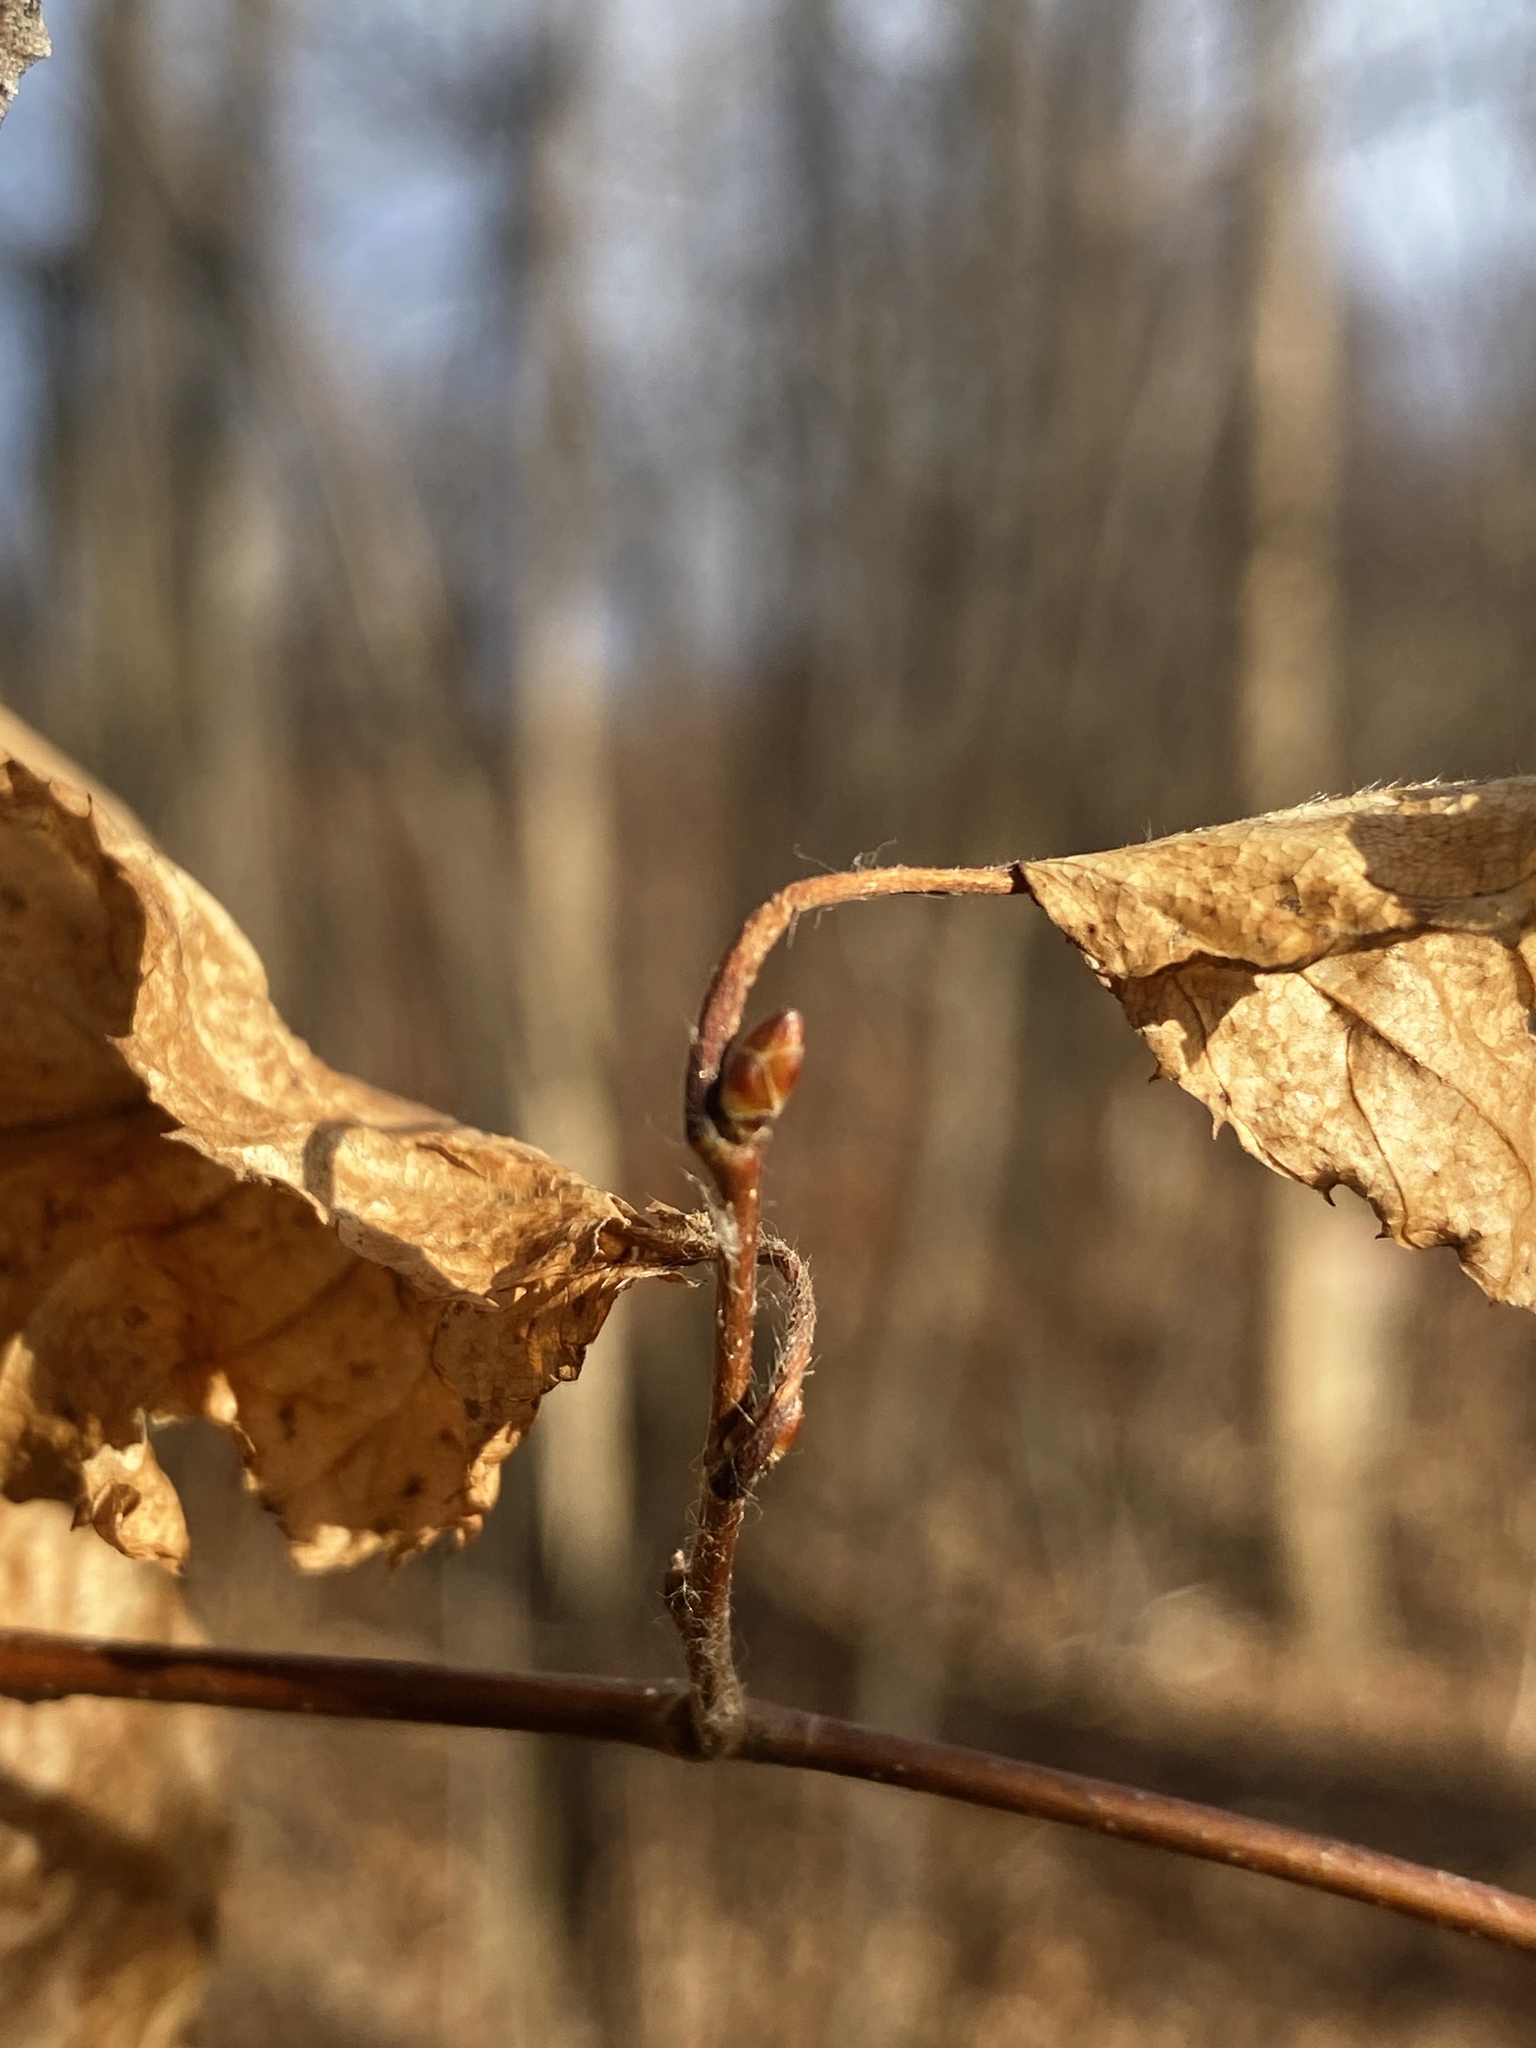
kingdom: Plantae
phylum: Tracheophyta
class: Magnoliopsida
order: Fagales
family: Betulaceae
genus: Carpinus
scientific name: Carpinus caroliniana
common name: American hornbeam
